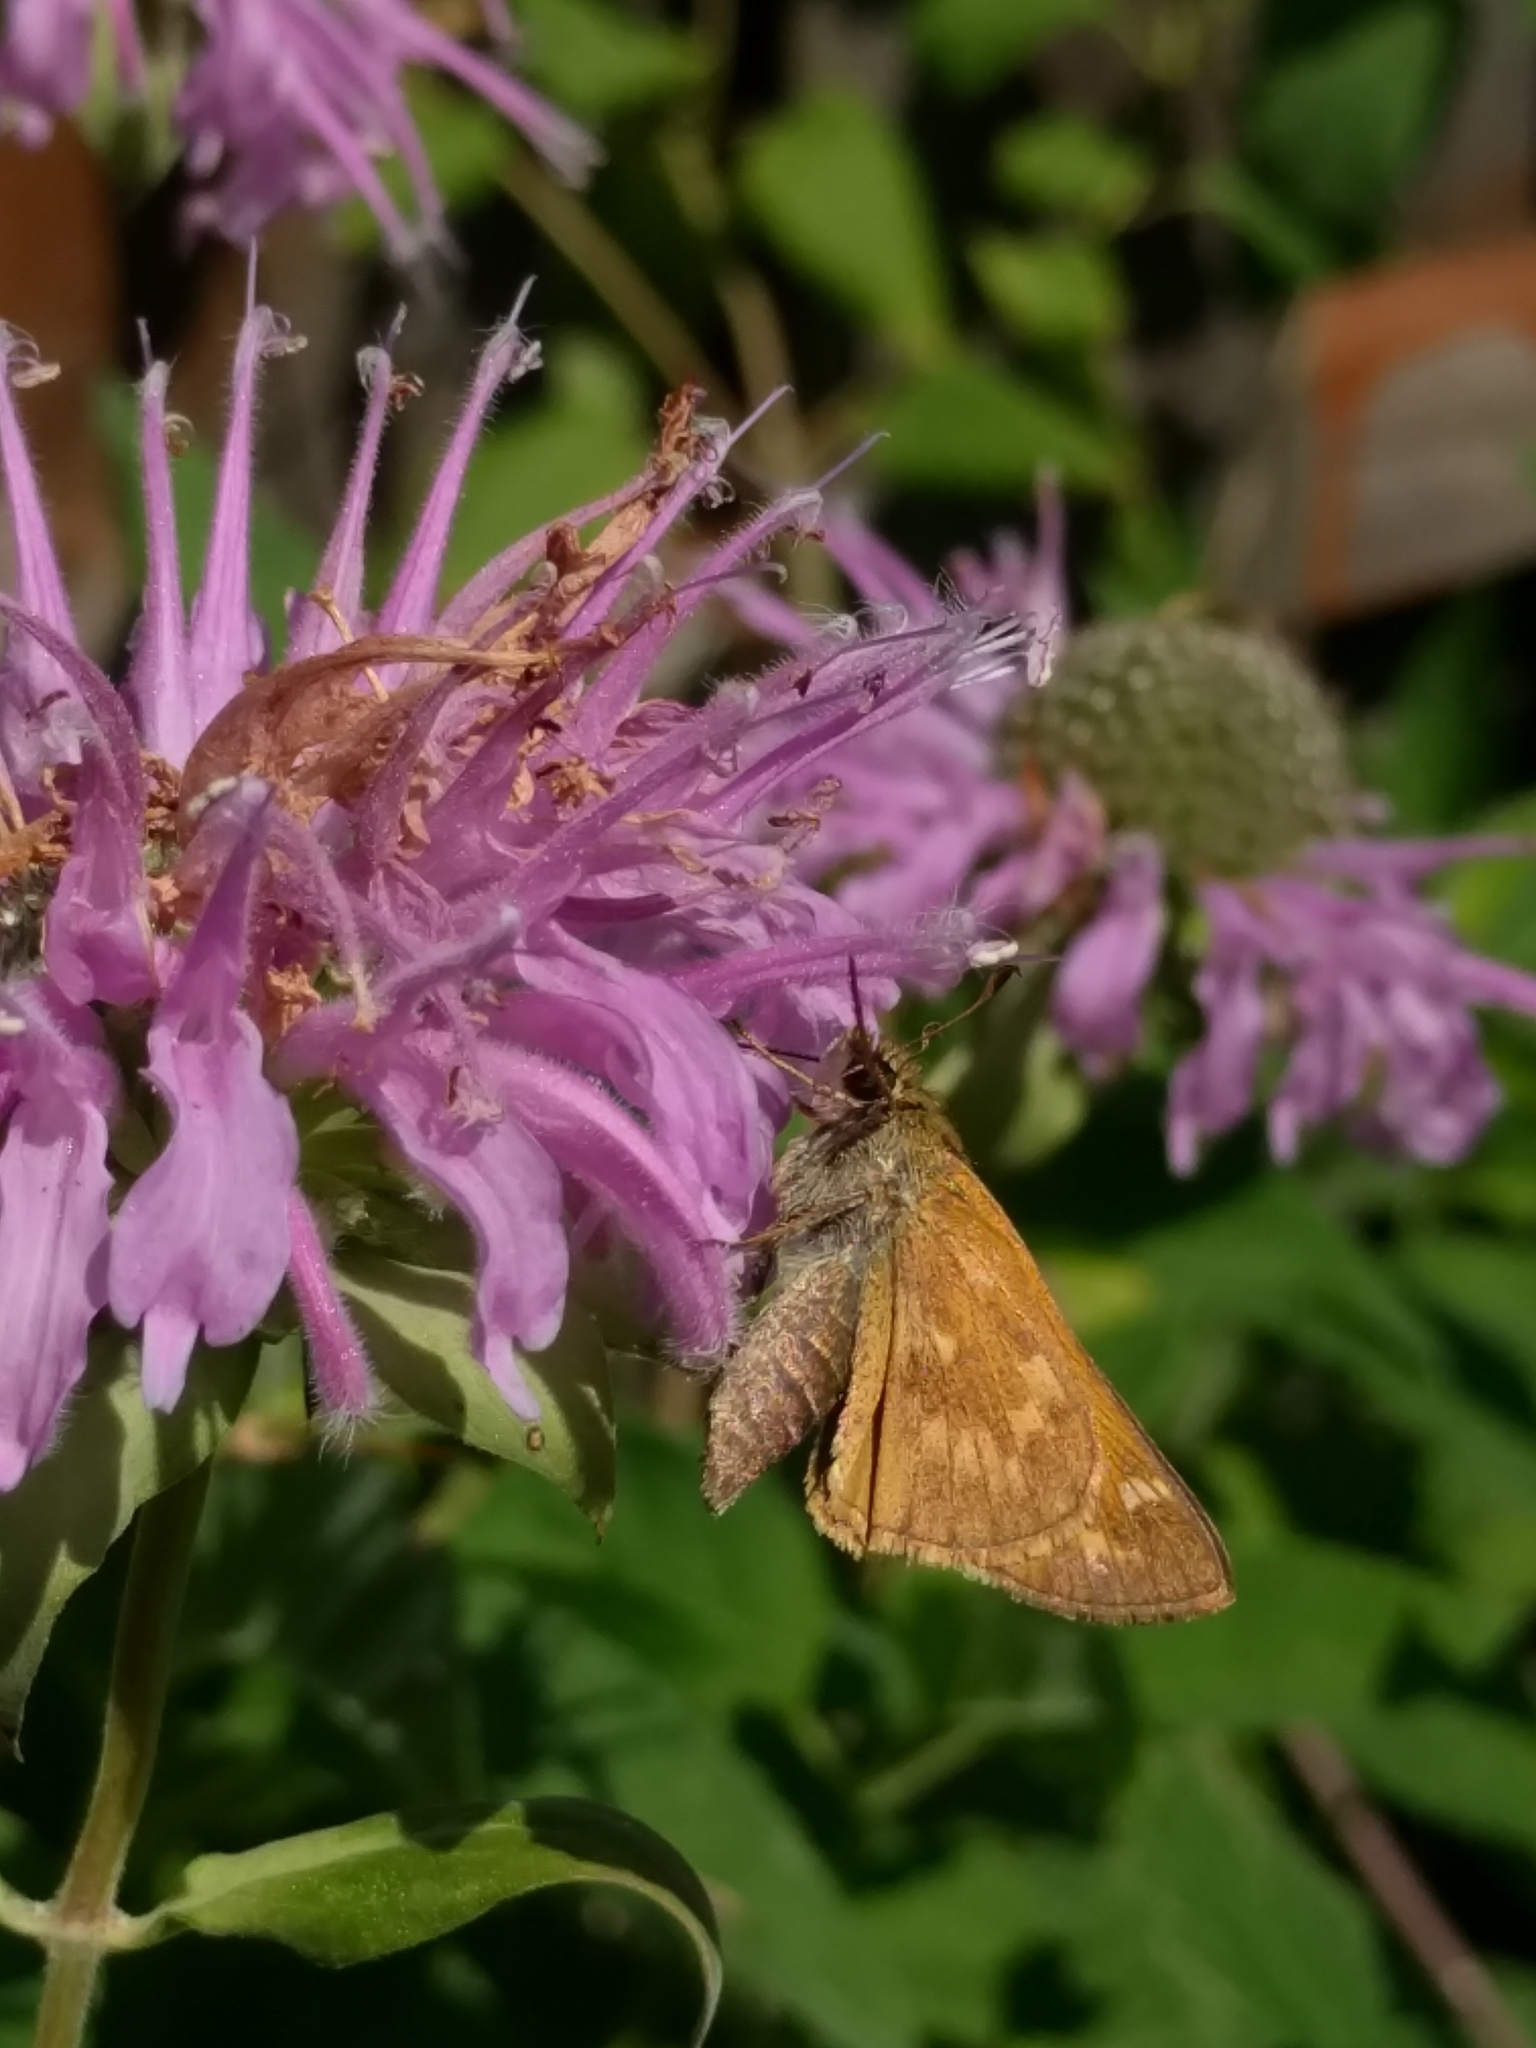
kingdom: Animalia
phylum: Arthropoda
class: Insecta
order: Lepidoptera
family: Hesperiidae
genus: Atalopedes
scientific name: Atalopedes
